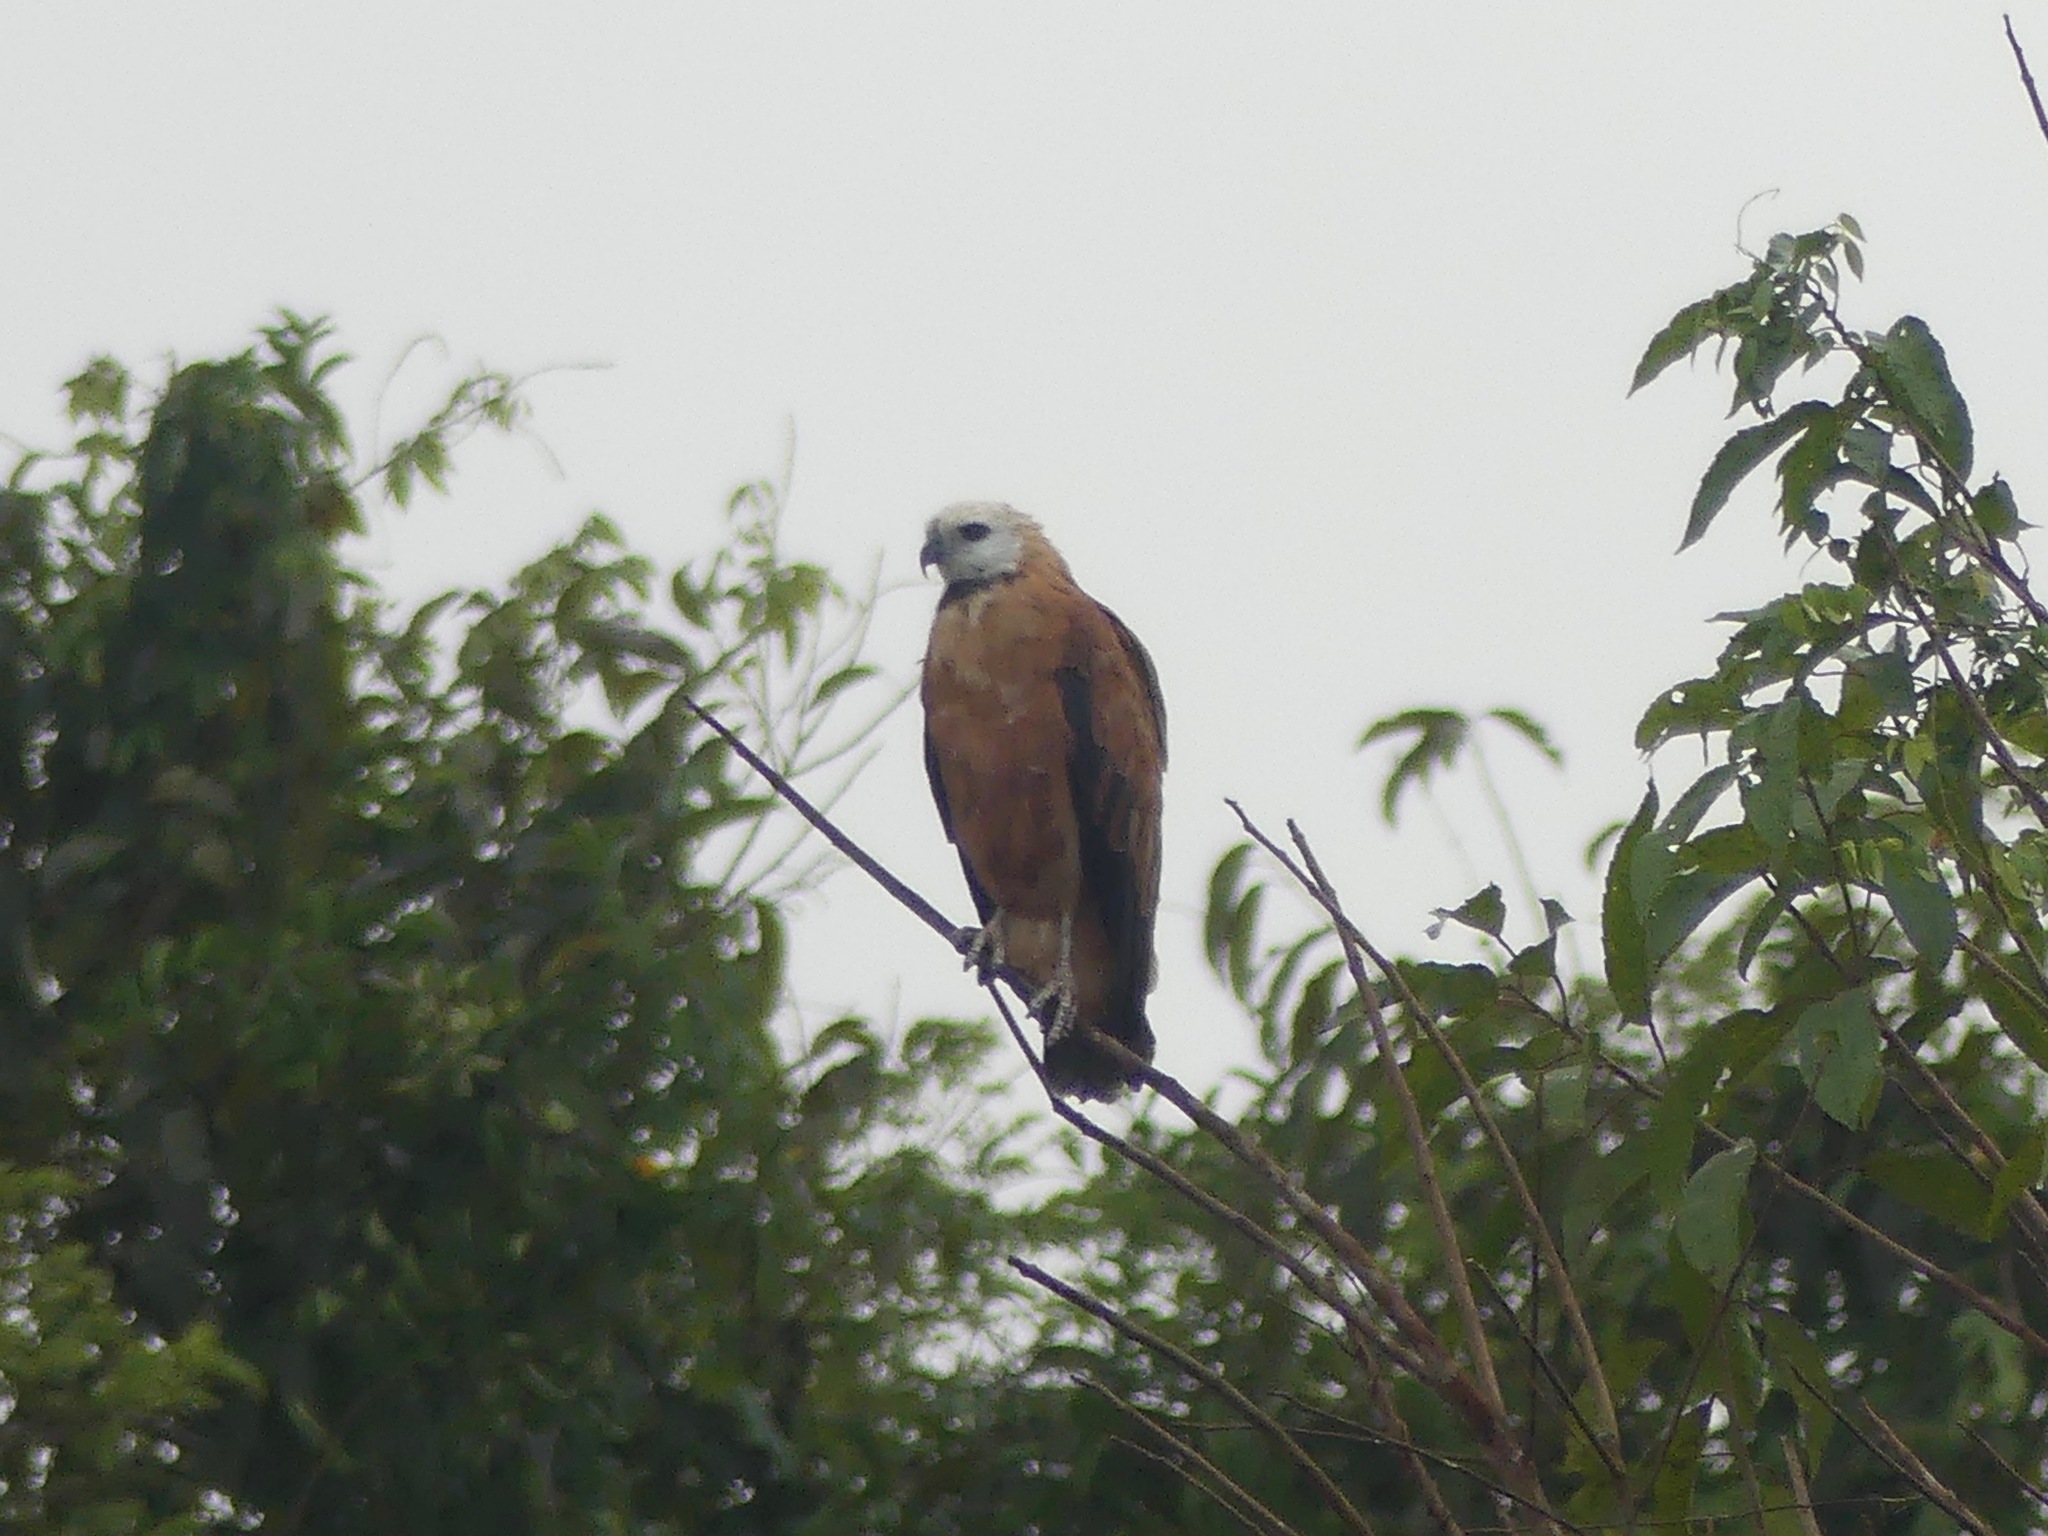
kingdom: Animalia
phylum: Chordata
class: Aves
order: Accipitriformes
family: Accipitridae
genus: Busarellus
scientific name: Busarellus nigricollis
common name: Black-collared hawk
